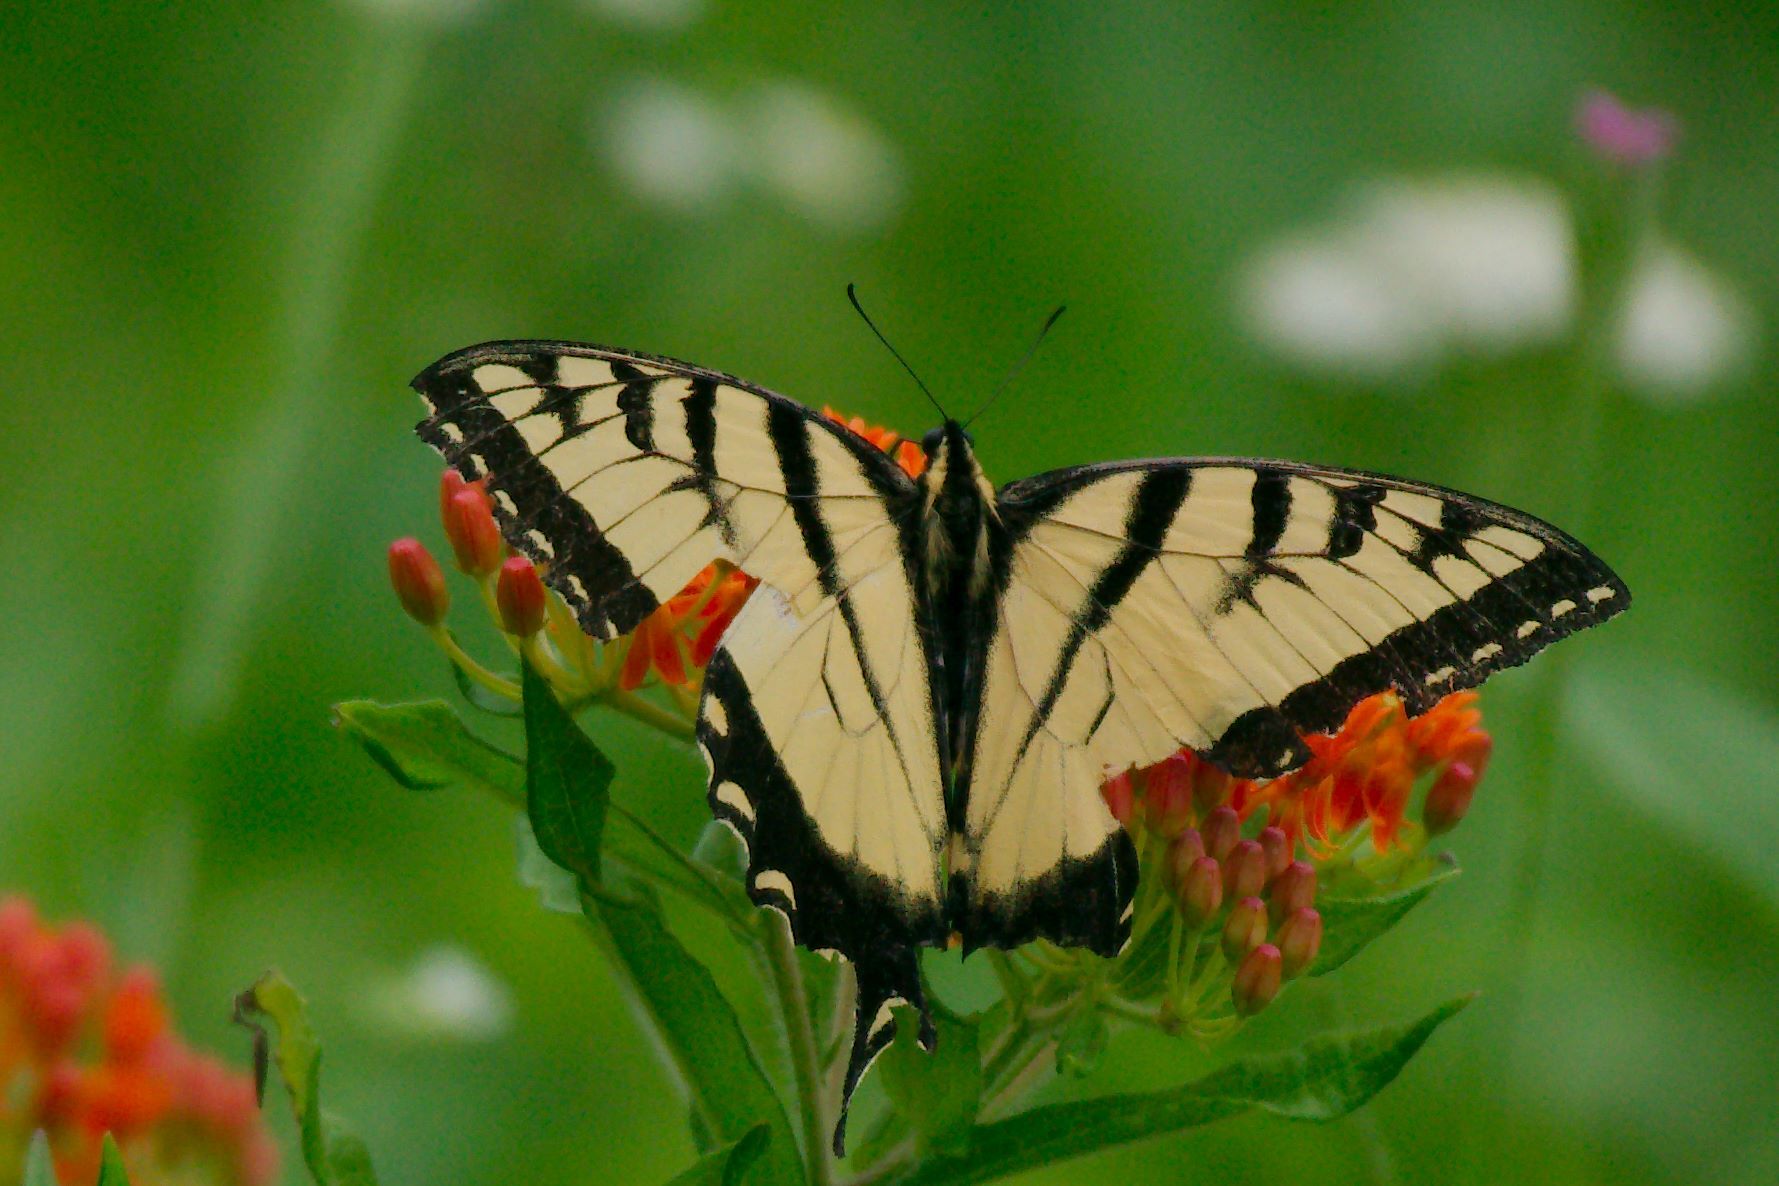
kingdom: Animalia
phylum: Arthropoda
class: Insecta
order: Lepidoptera
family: Papilionidae
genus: Papilio
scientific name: Papilio glaucus
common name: Tiger swallowtail
